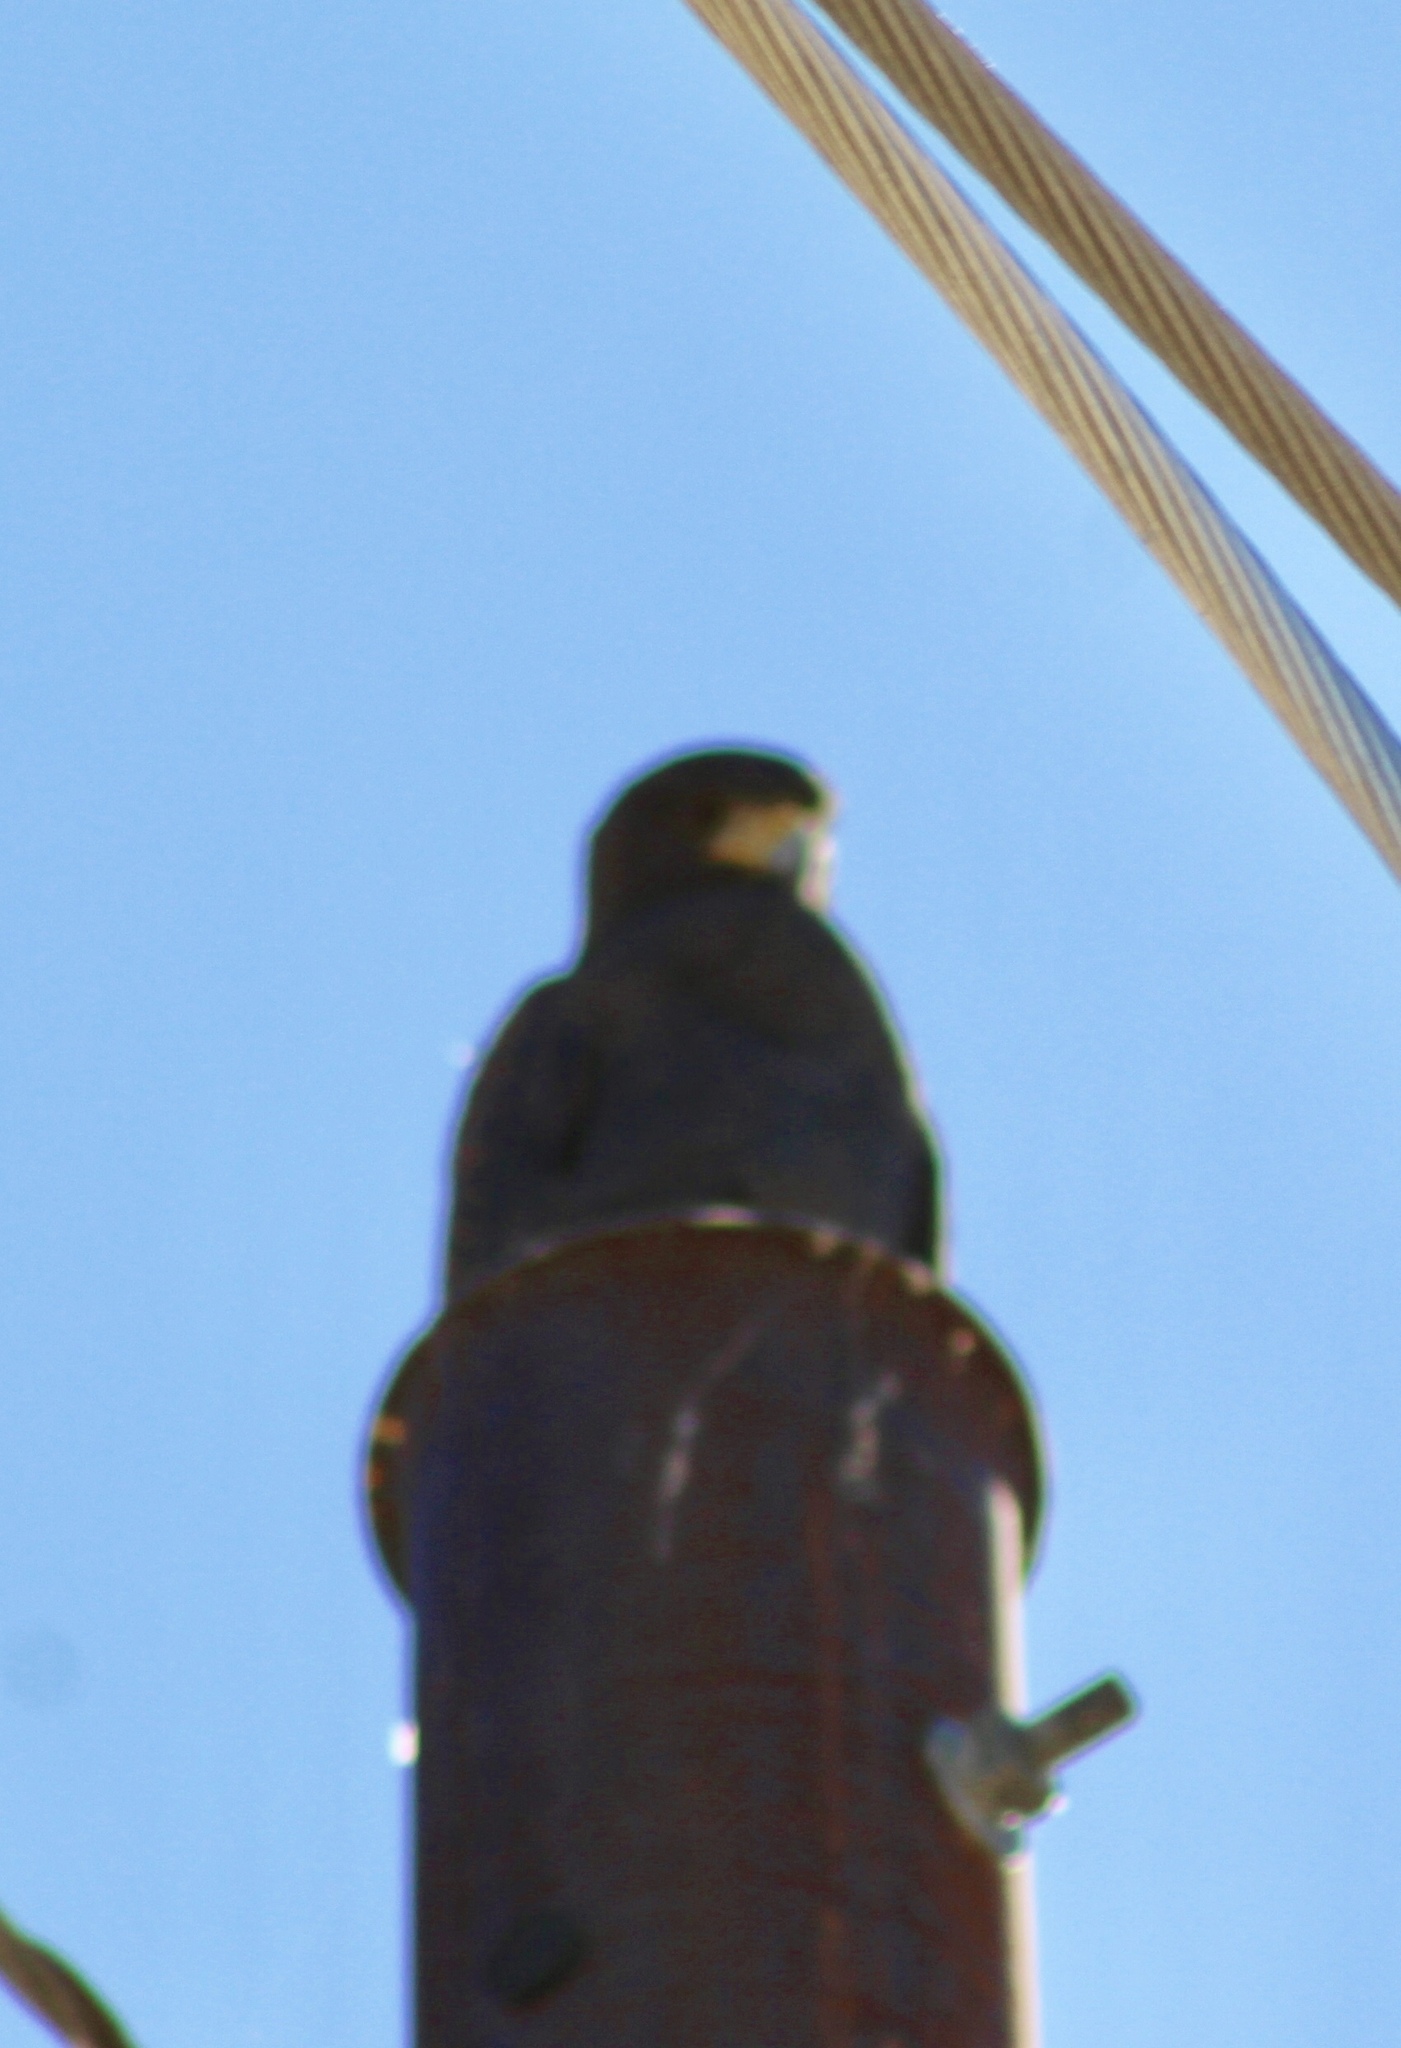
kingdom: Animalia
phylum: Chordata
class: Aves
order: Accipitriformes
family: Accipitridae
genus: Parabuteo
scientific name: Parabuteo unicinctus
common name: Harris's hawk
